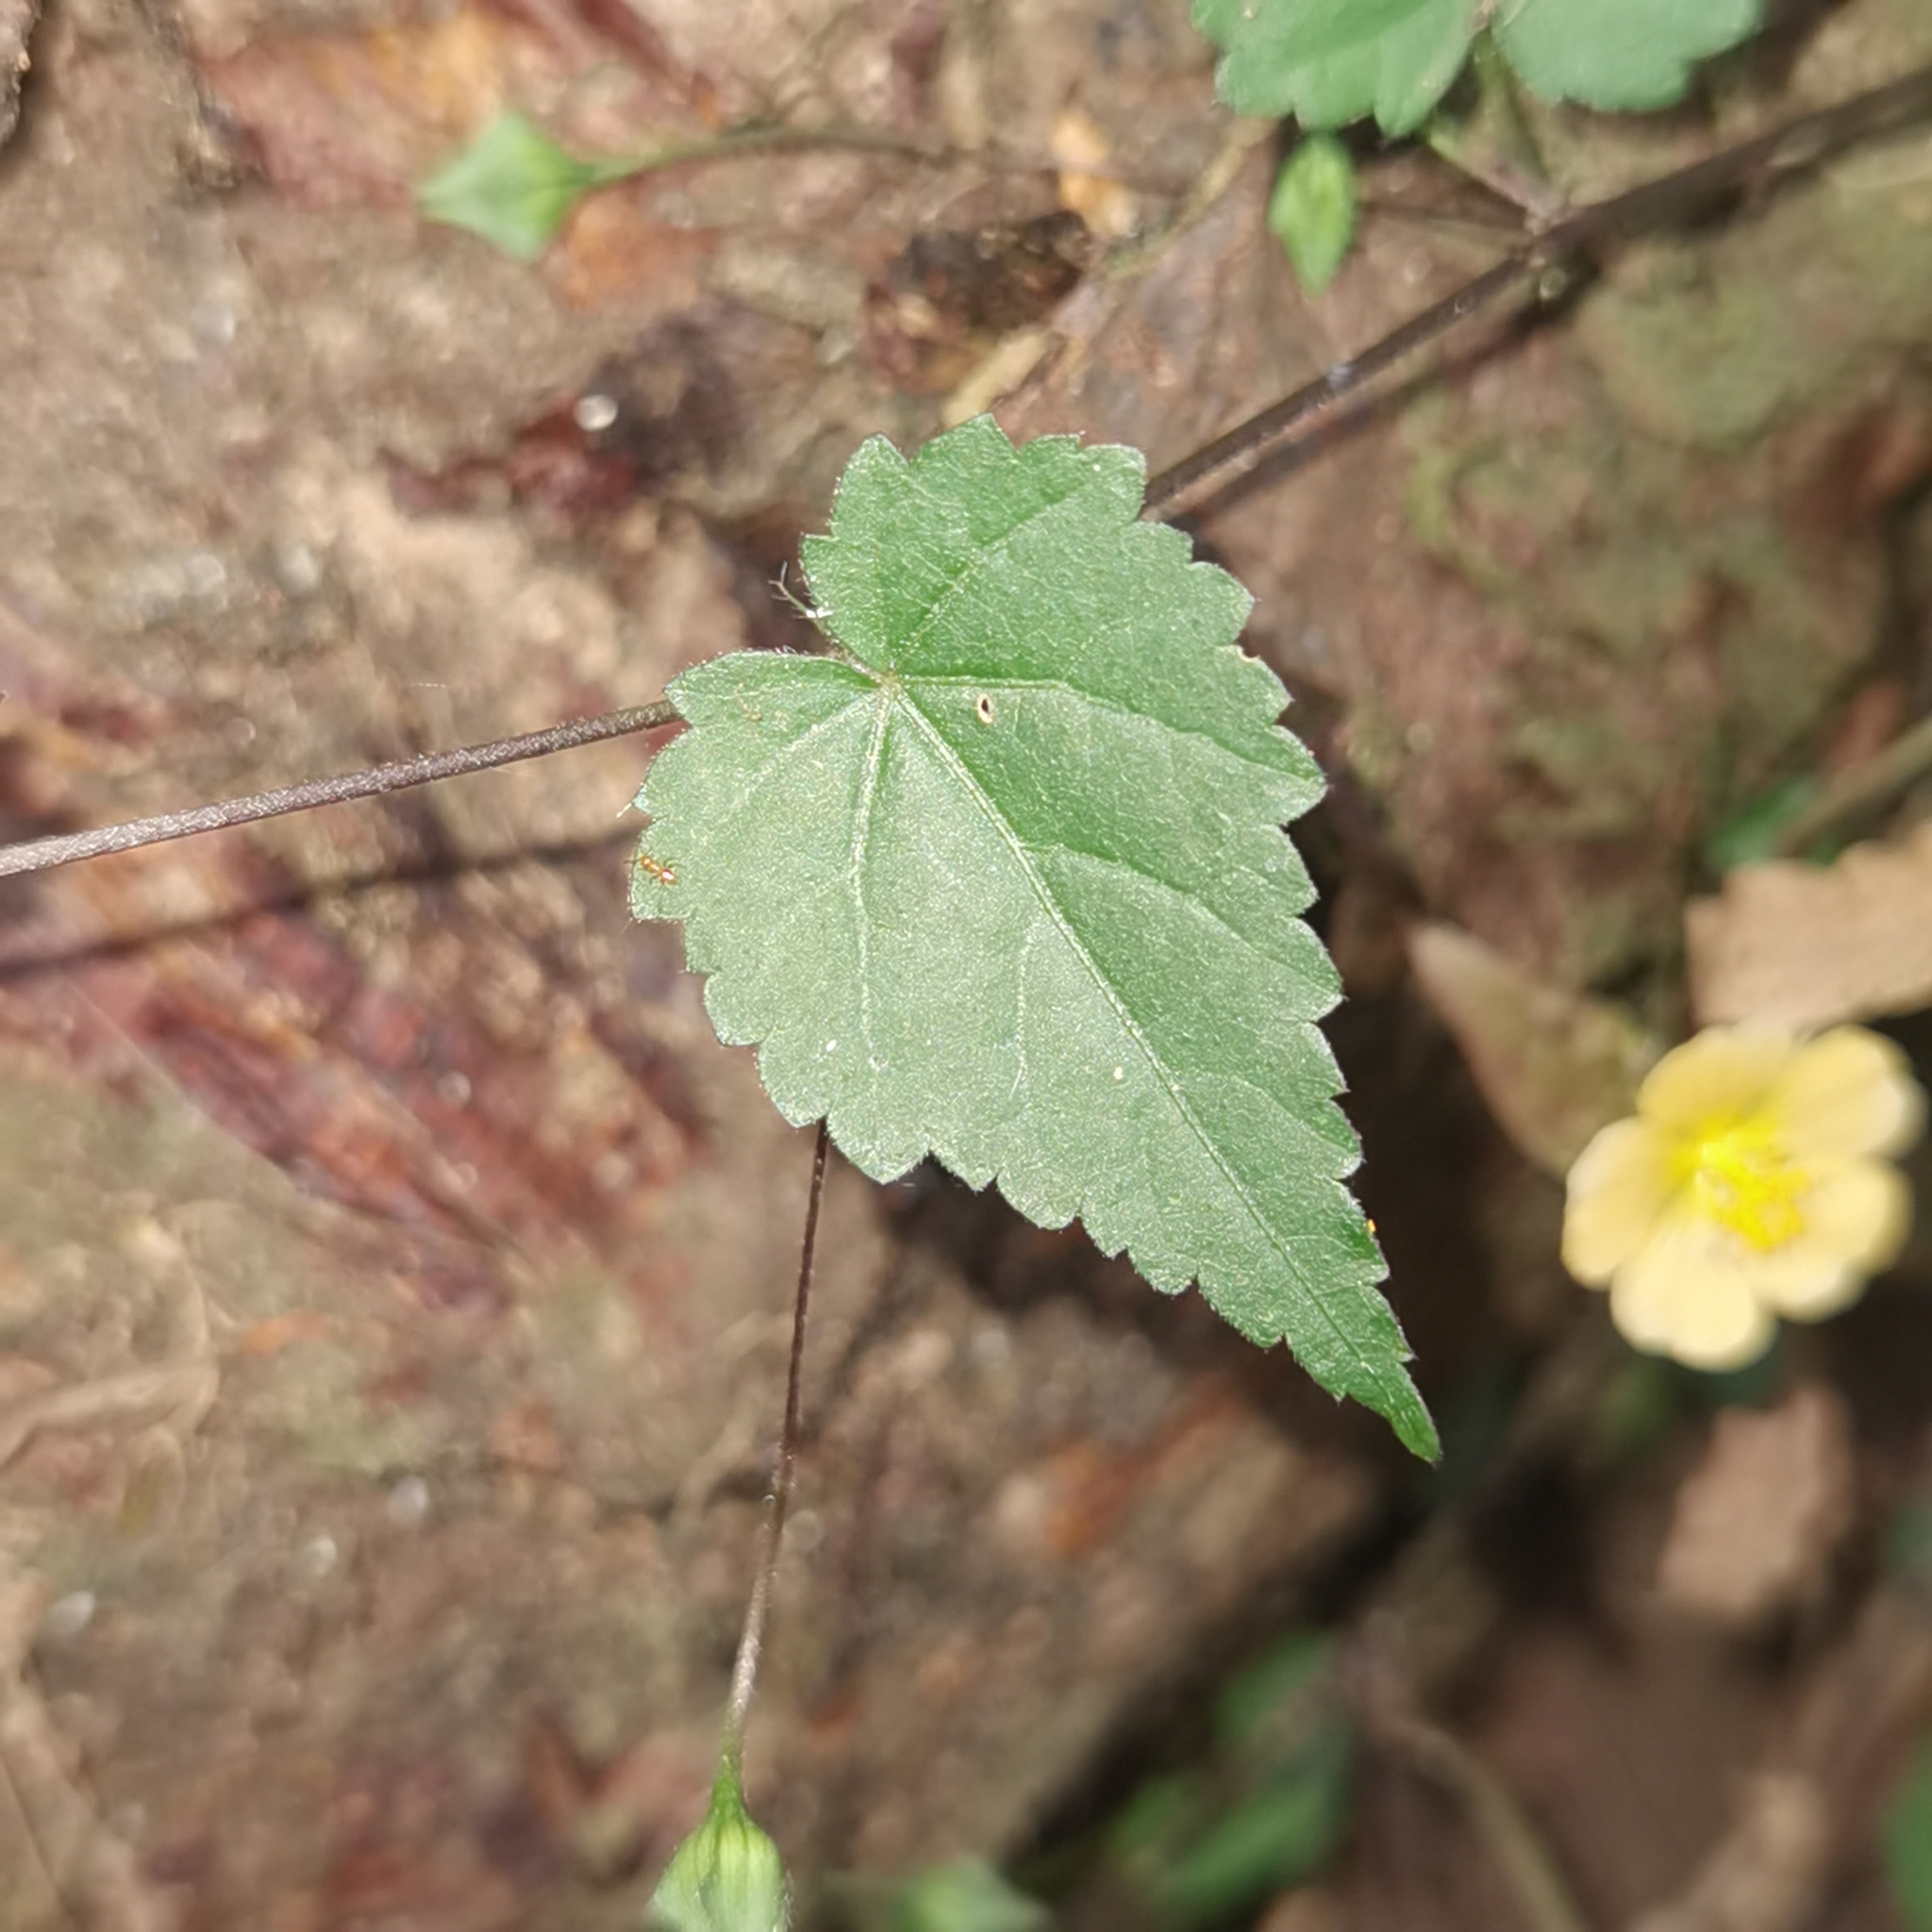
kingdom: Plantae
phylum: Tracheophyta
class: Magnoliopsida
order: Malvales
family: Malvaceae
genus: Sida
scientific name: Sida repens
